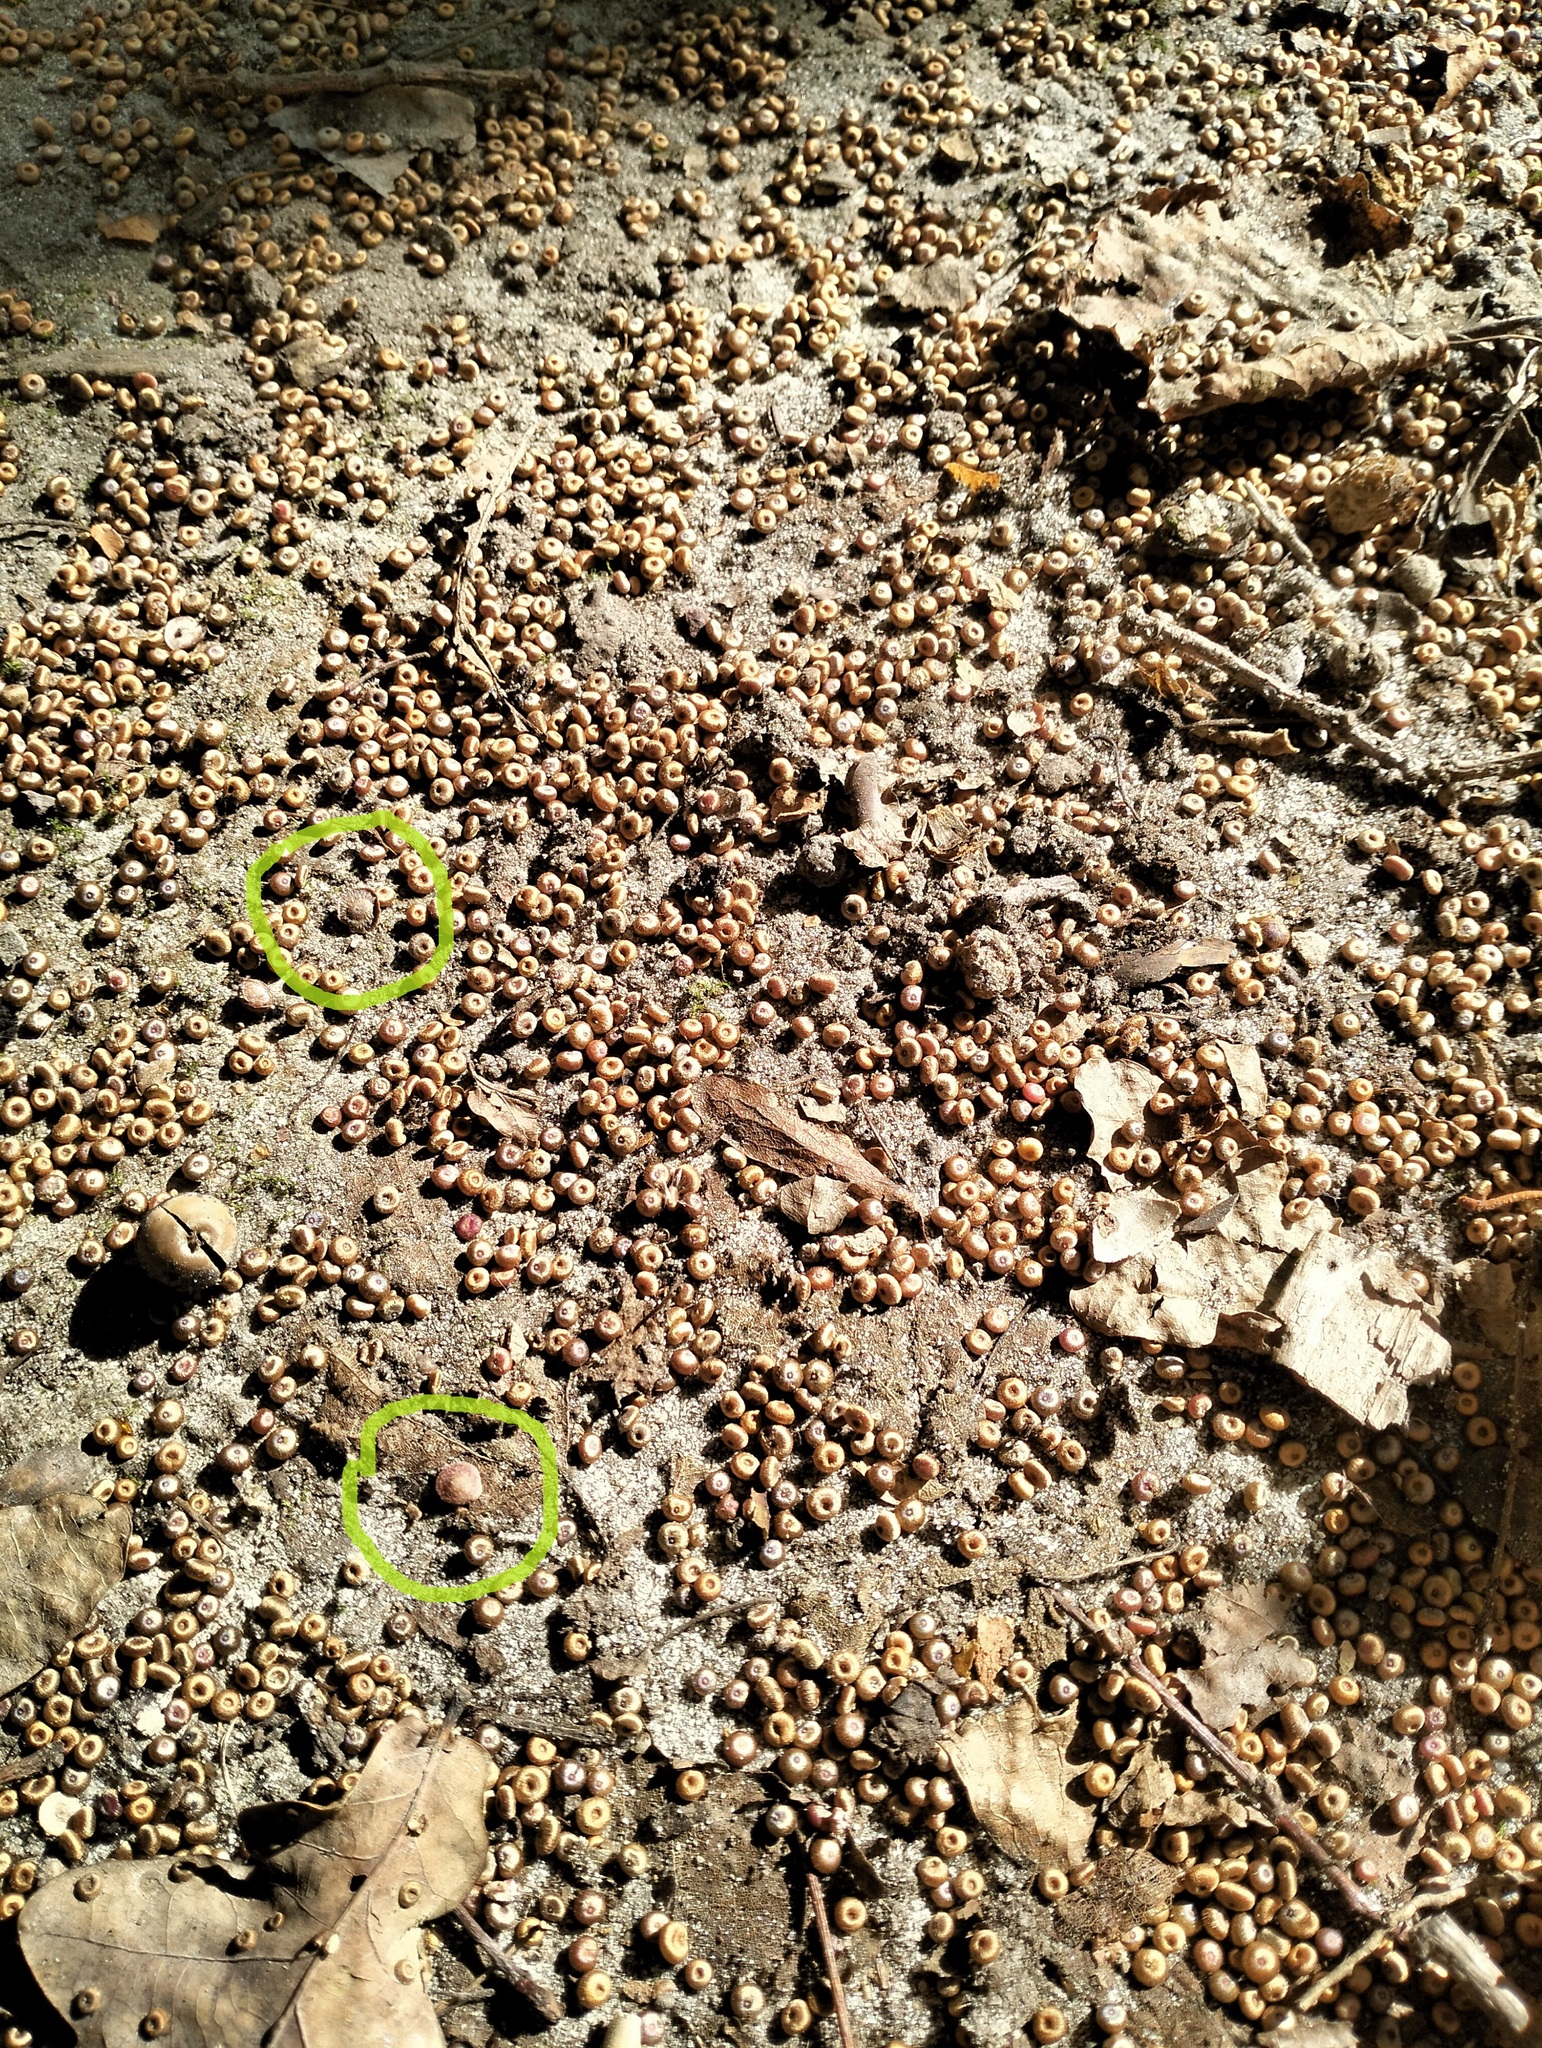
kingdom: Animalia
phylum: Arthropoda
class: Insecta
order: Hymenoptera
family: Cynipidae
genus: Neuroterus
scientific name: Neuroterus quercusbaccarum
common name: Common spangle gall
